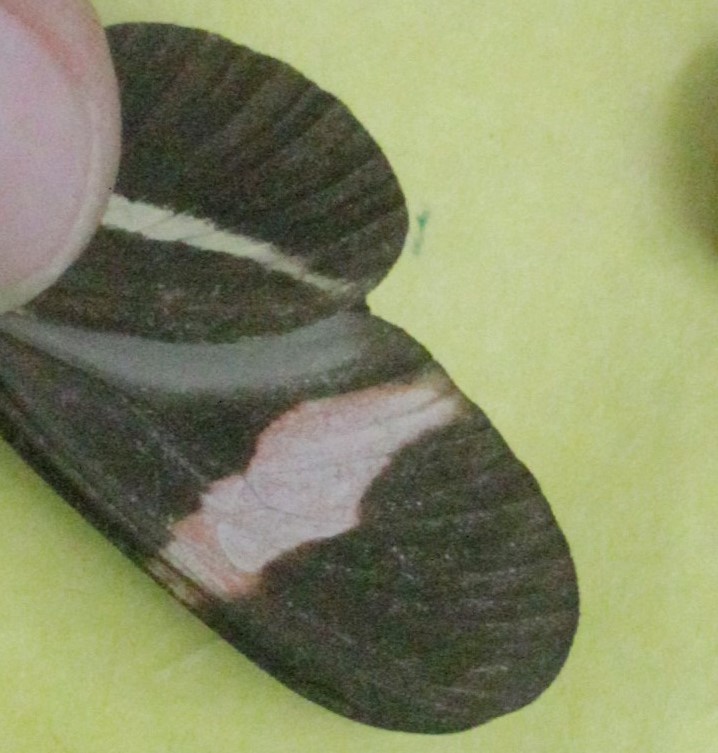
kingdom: Animalia
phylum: Arthropoda
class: Insecta
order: Lepidoptera
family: Nymphalidae
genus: Tirumala
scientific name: Tirumala petiverana
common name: Blue monarch
